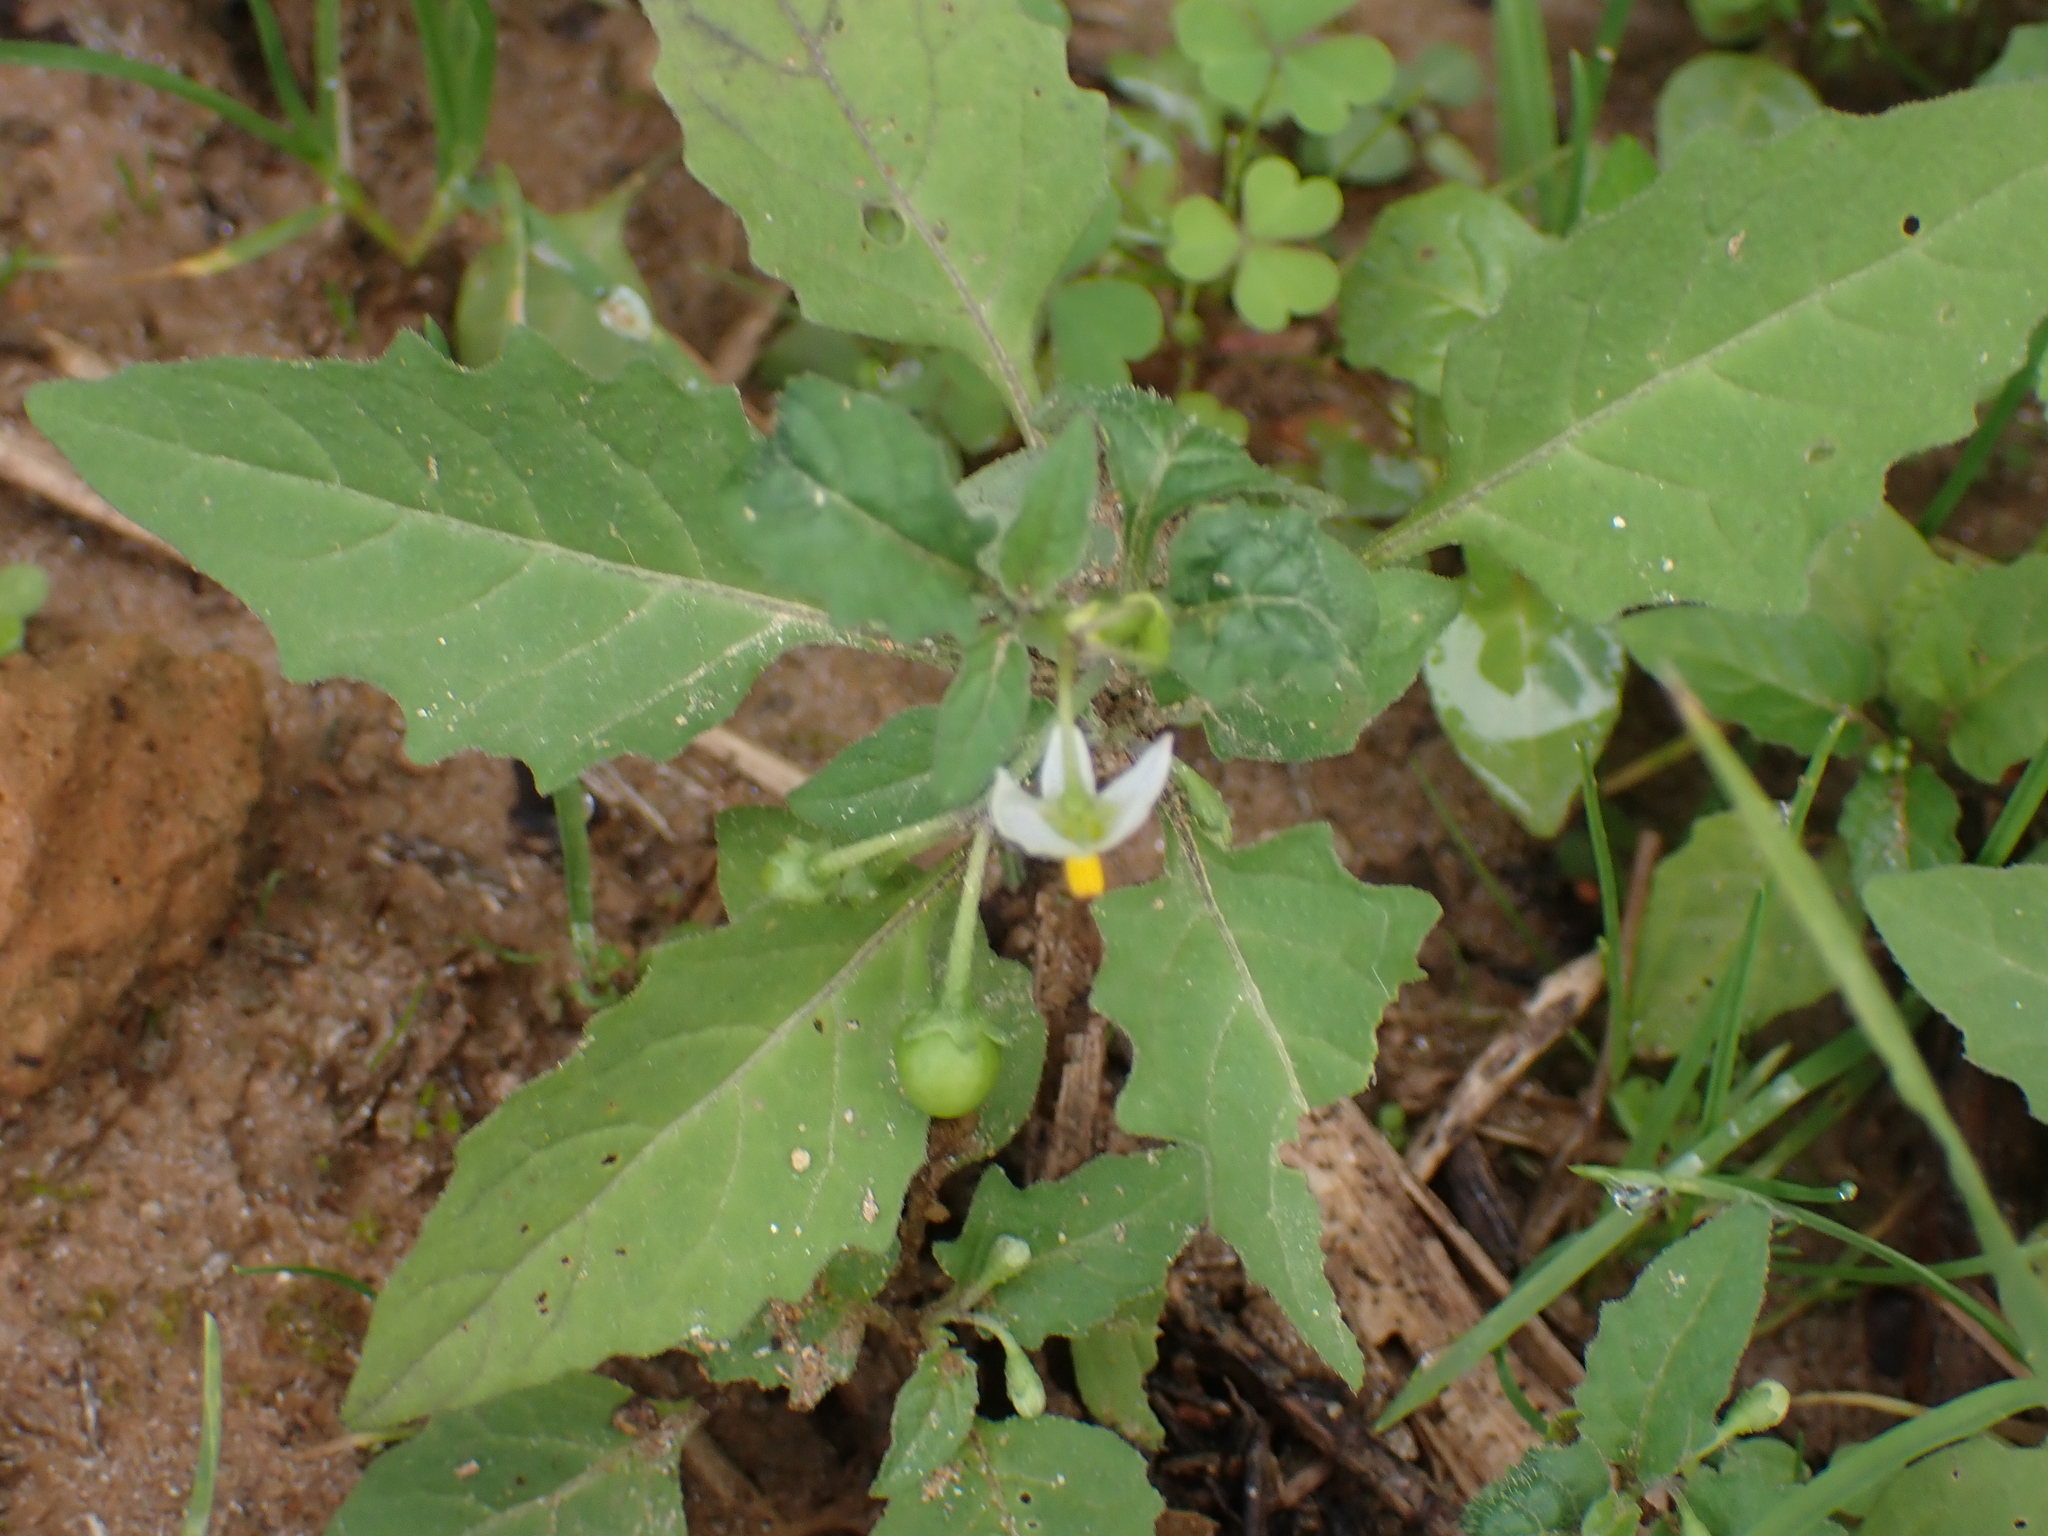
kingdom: Plantae
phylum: Tracheophyta
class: Magnoliopsida
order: Solanales
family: Solanaceae
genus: Solanum
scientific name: Solanum emulans
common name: Eastern black nightshade
